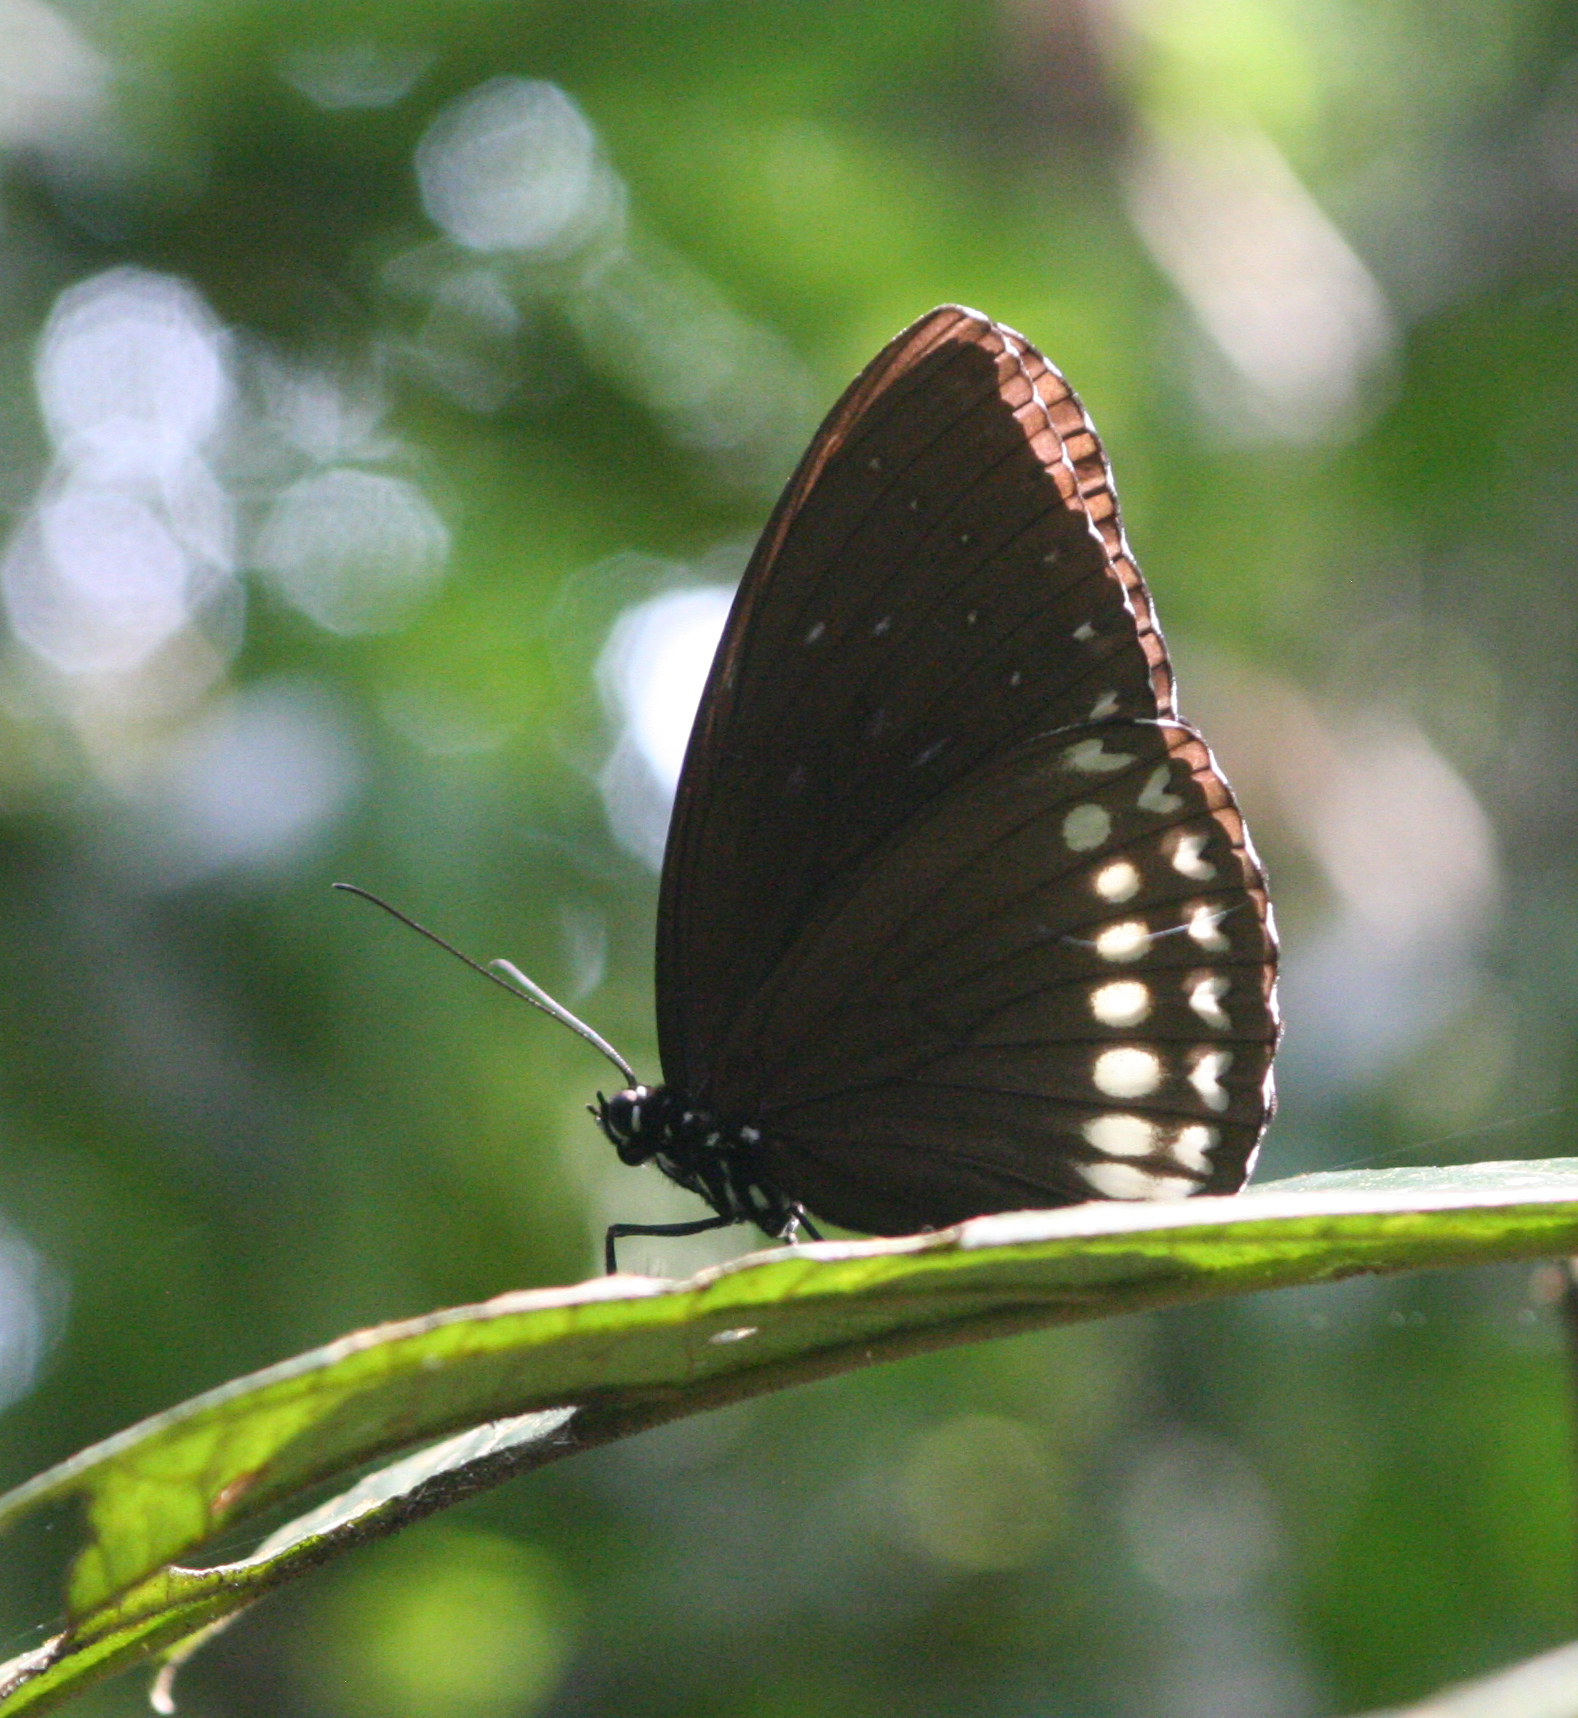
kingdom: Animalia
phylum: Arthropoda
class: Insecta
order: Lepidoptera
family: Nymphalidae
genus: Penthema
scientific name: Penthema darlisa
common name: Three-coloured kaiser
